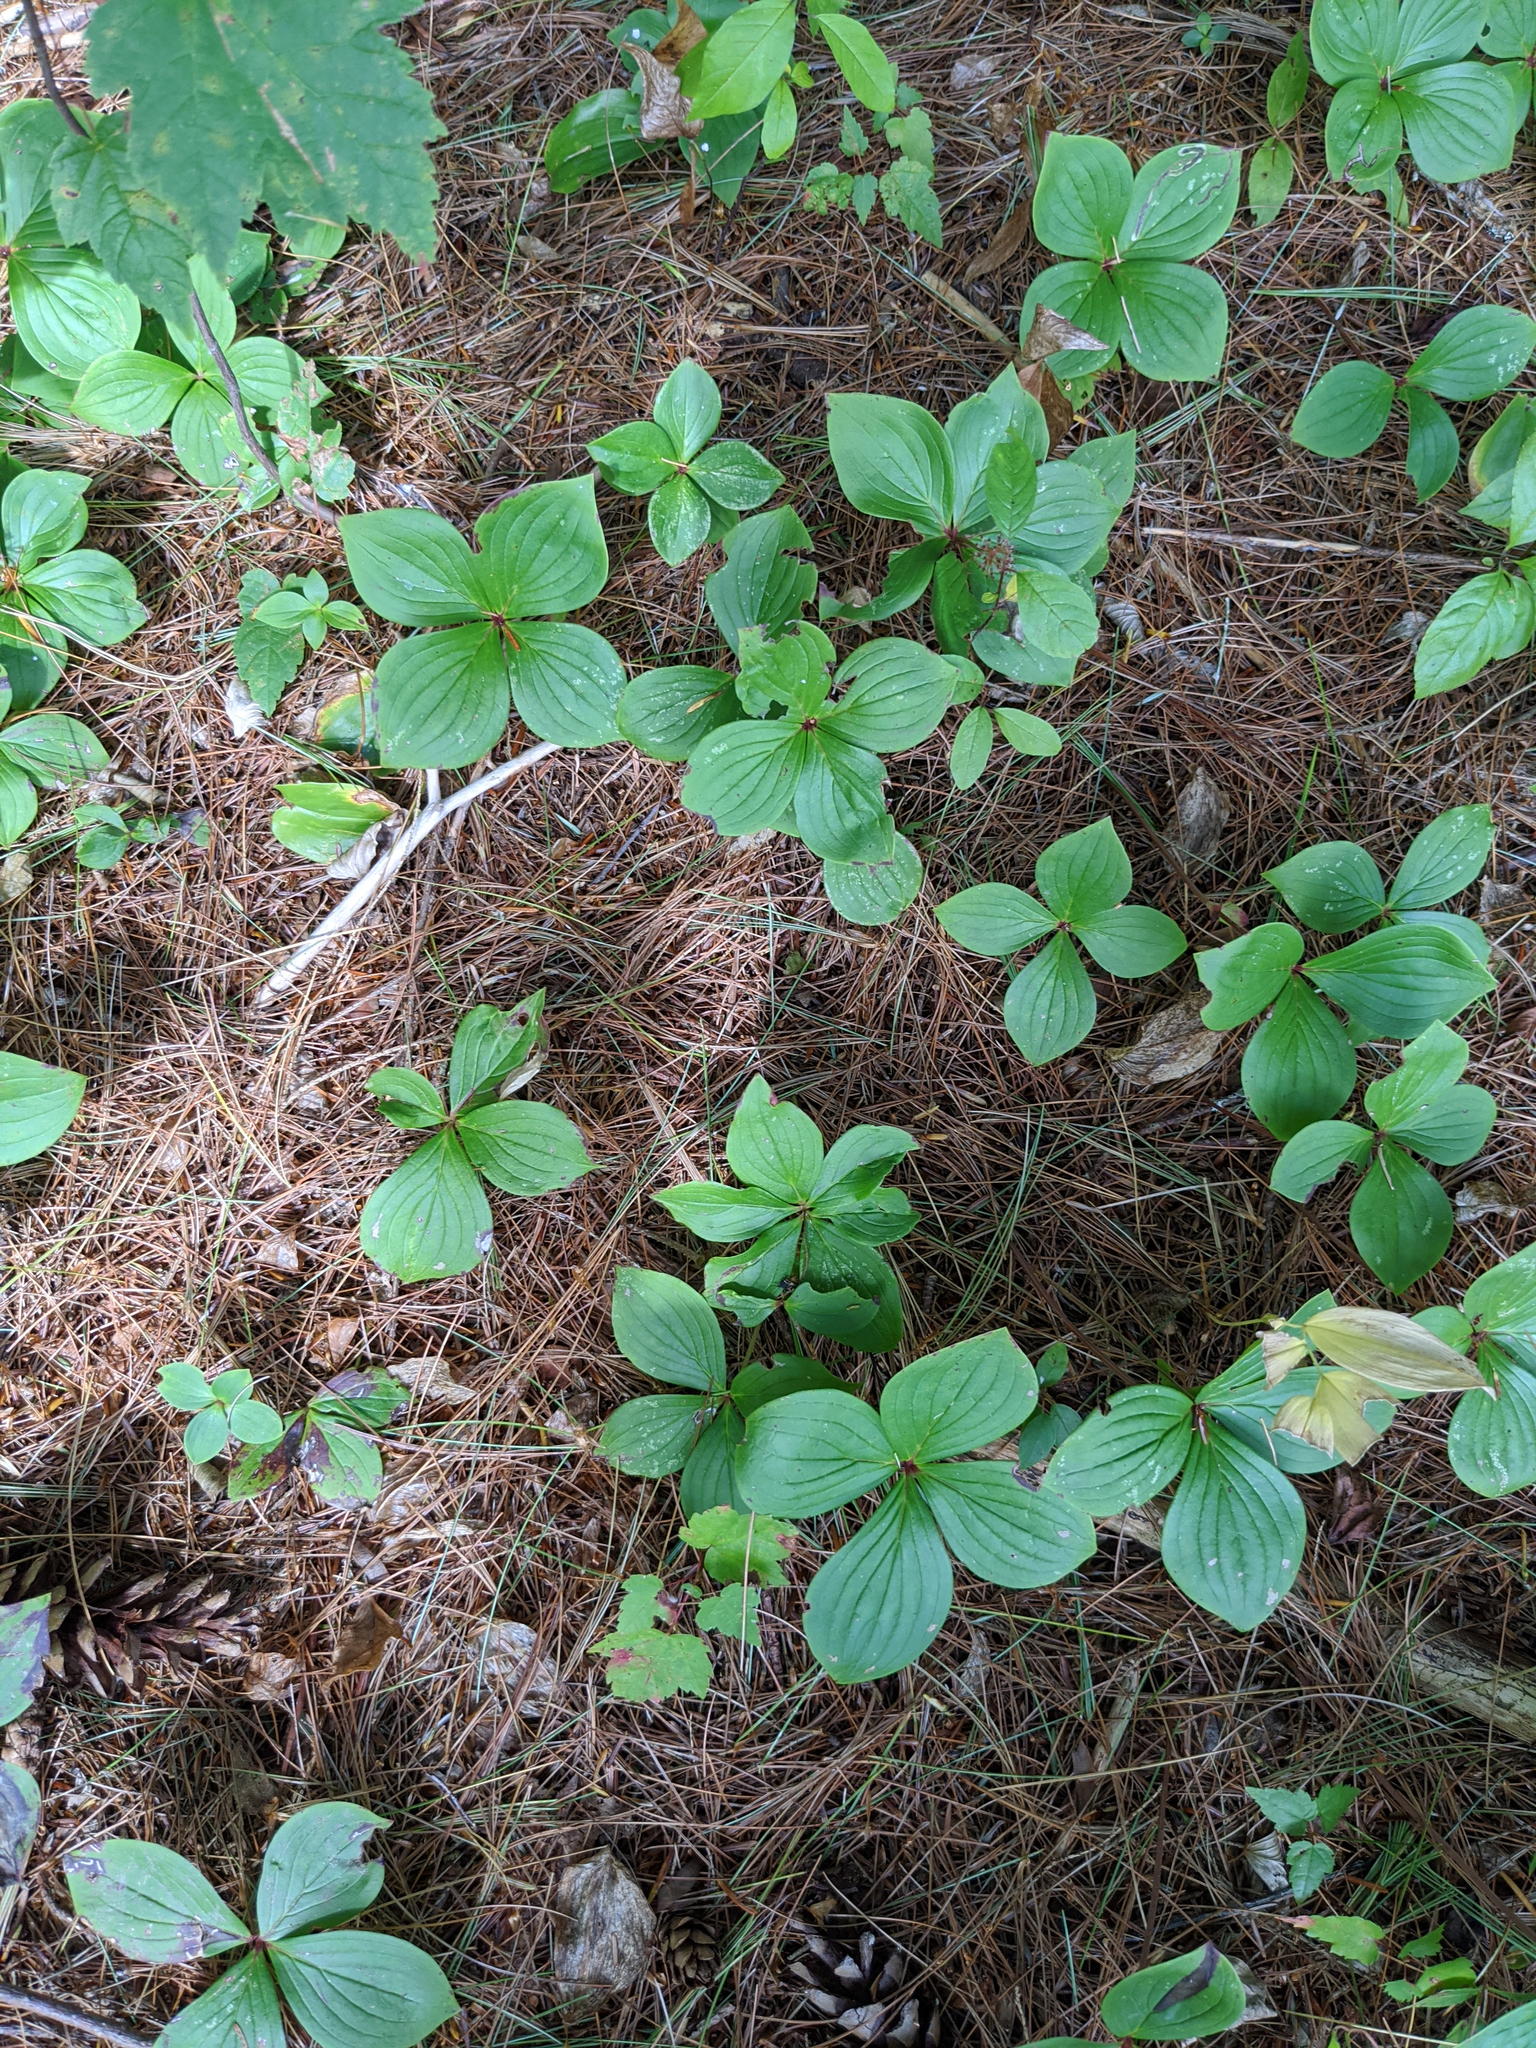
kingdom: Plantae
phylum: Tracheophyta
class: Magnoliopsida
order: Cornales
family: Cornaceae
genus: Cornus
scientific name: Cornus canadensis
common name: Creeping dogwood
